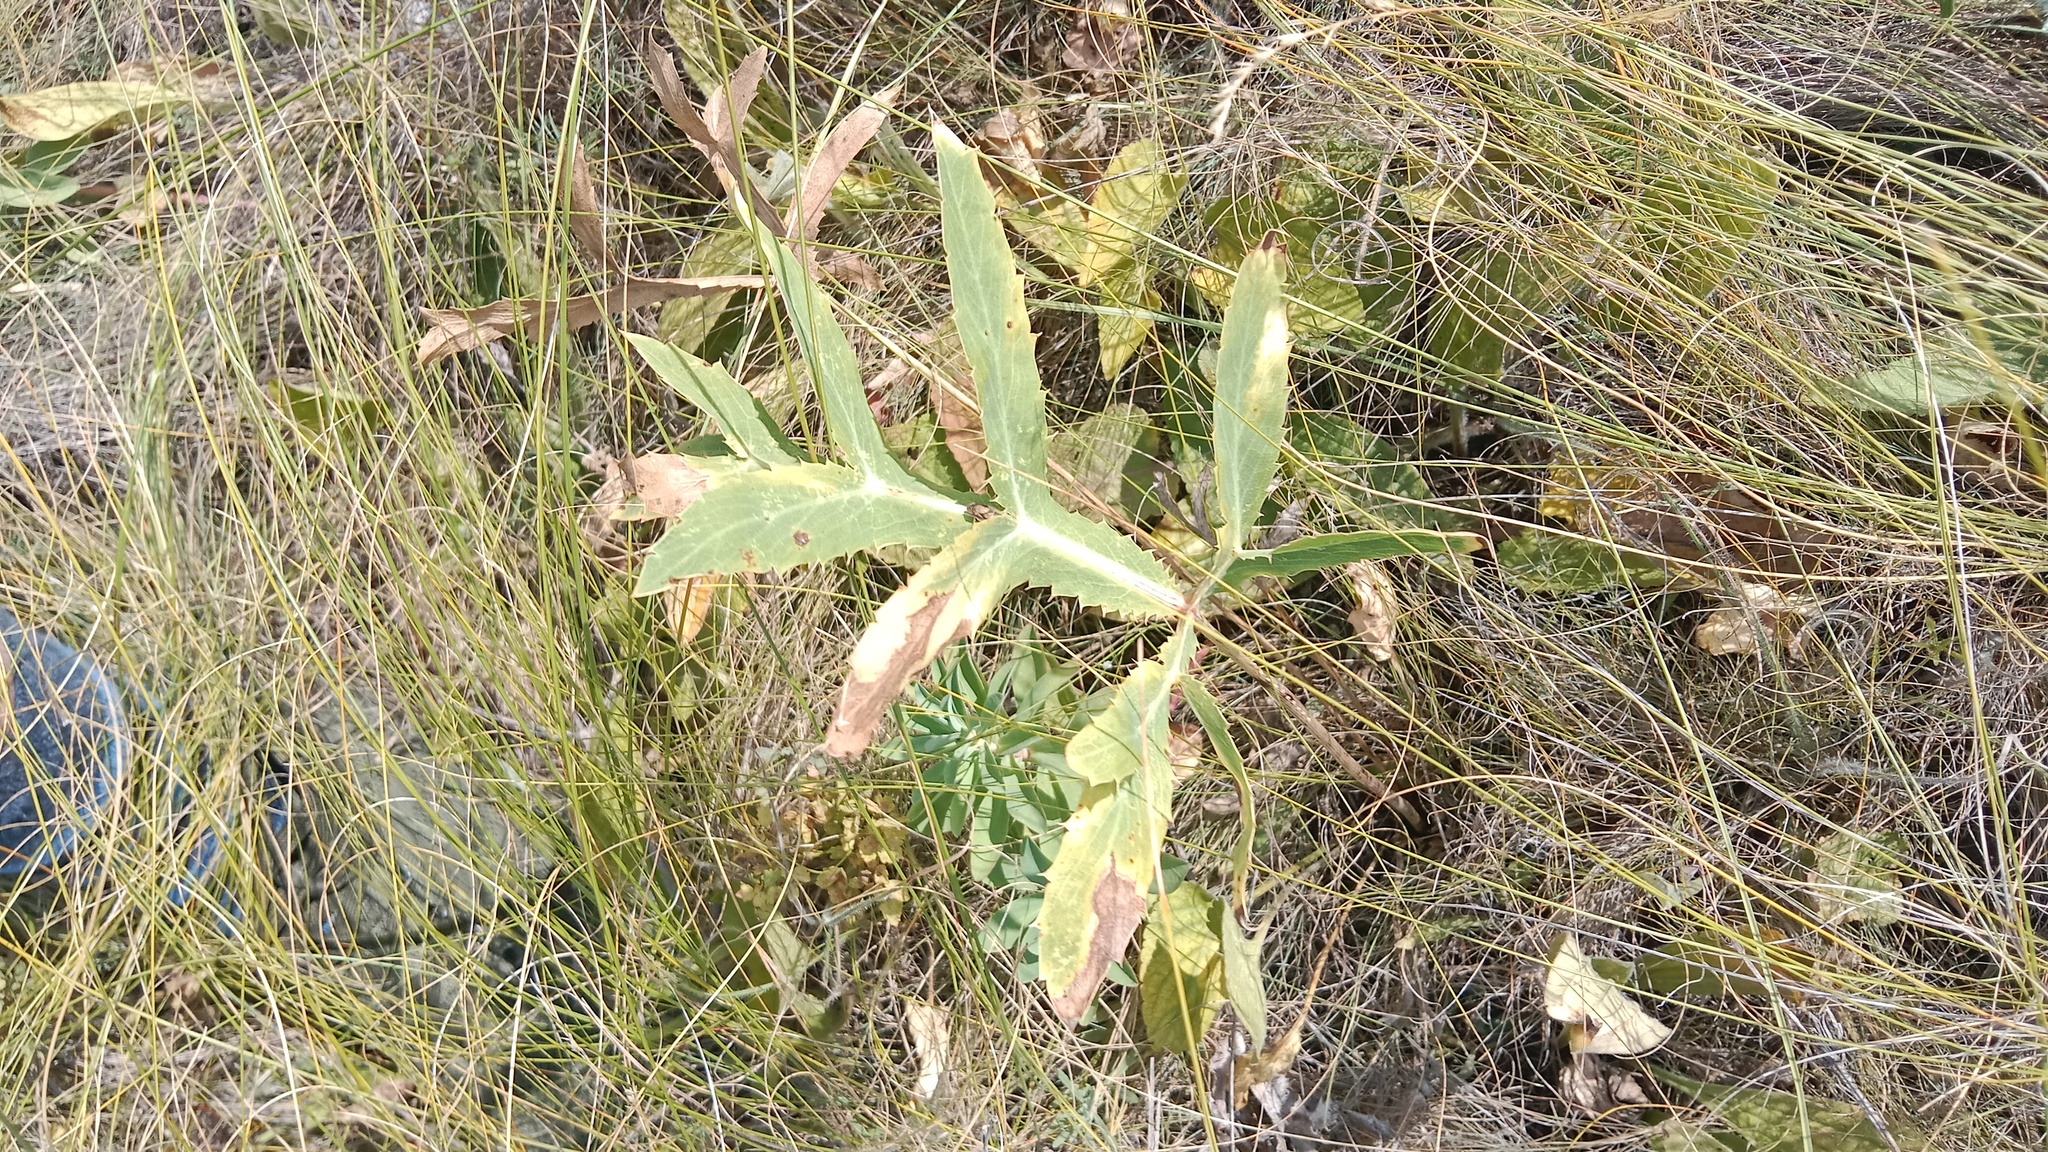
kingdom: Plantae
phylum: Tracheophyta
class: Magnoliopsida
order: Apiales
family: Apiaceae
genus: Eryngium
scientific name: Eryngium campestre
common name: Field eryngo
